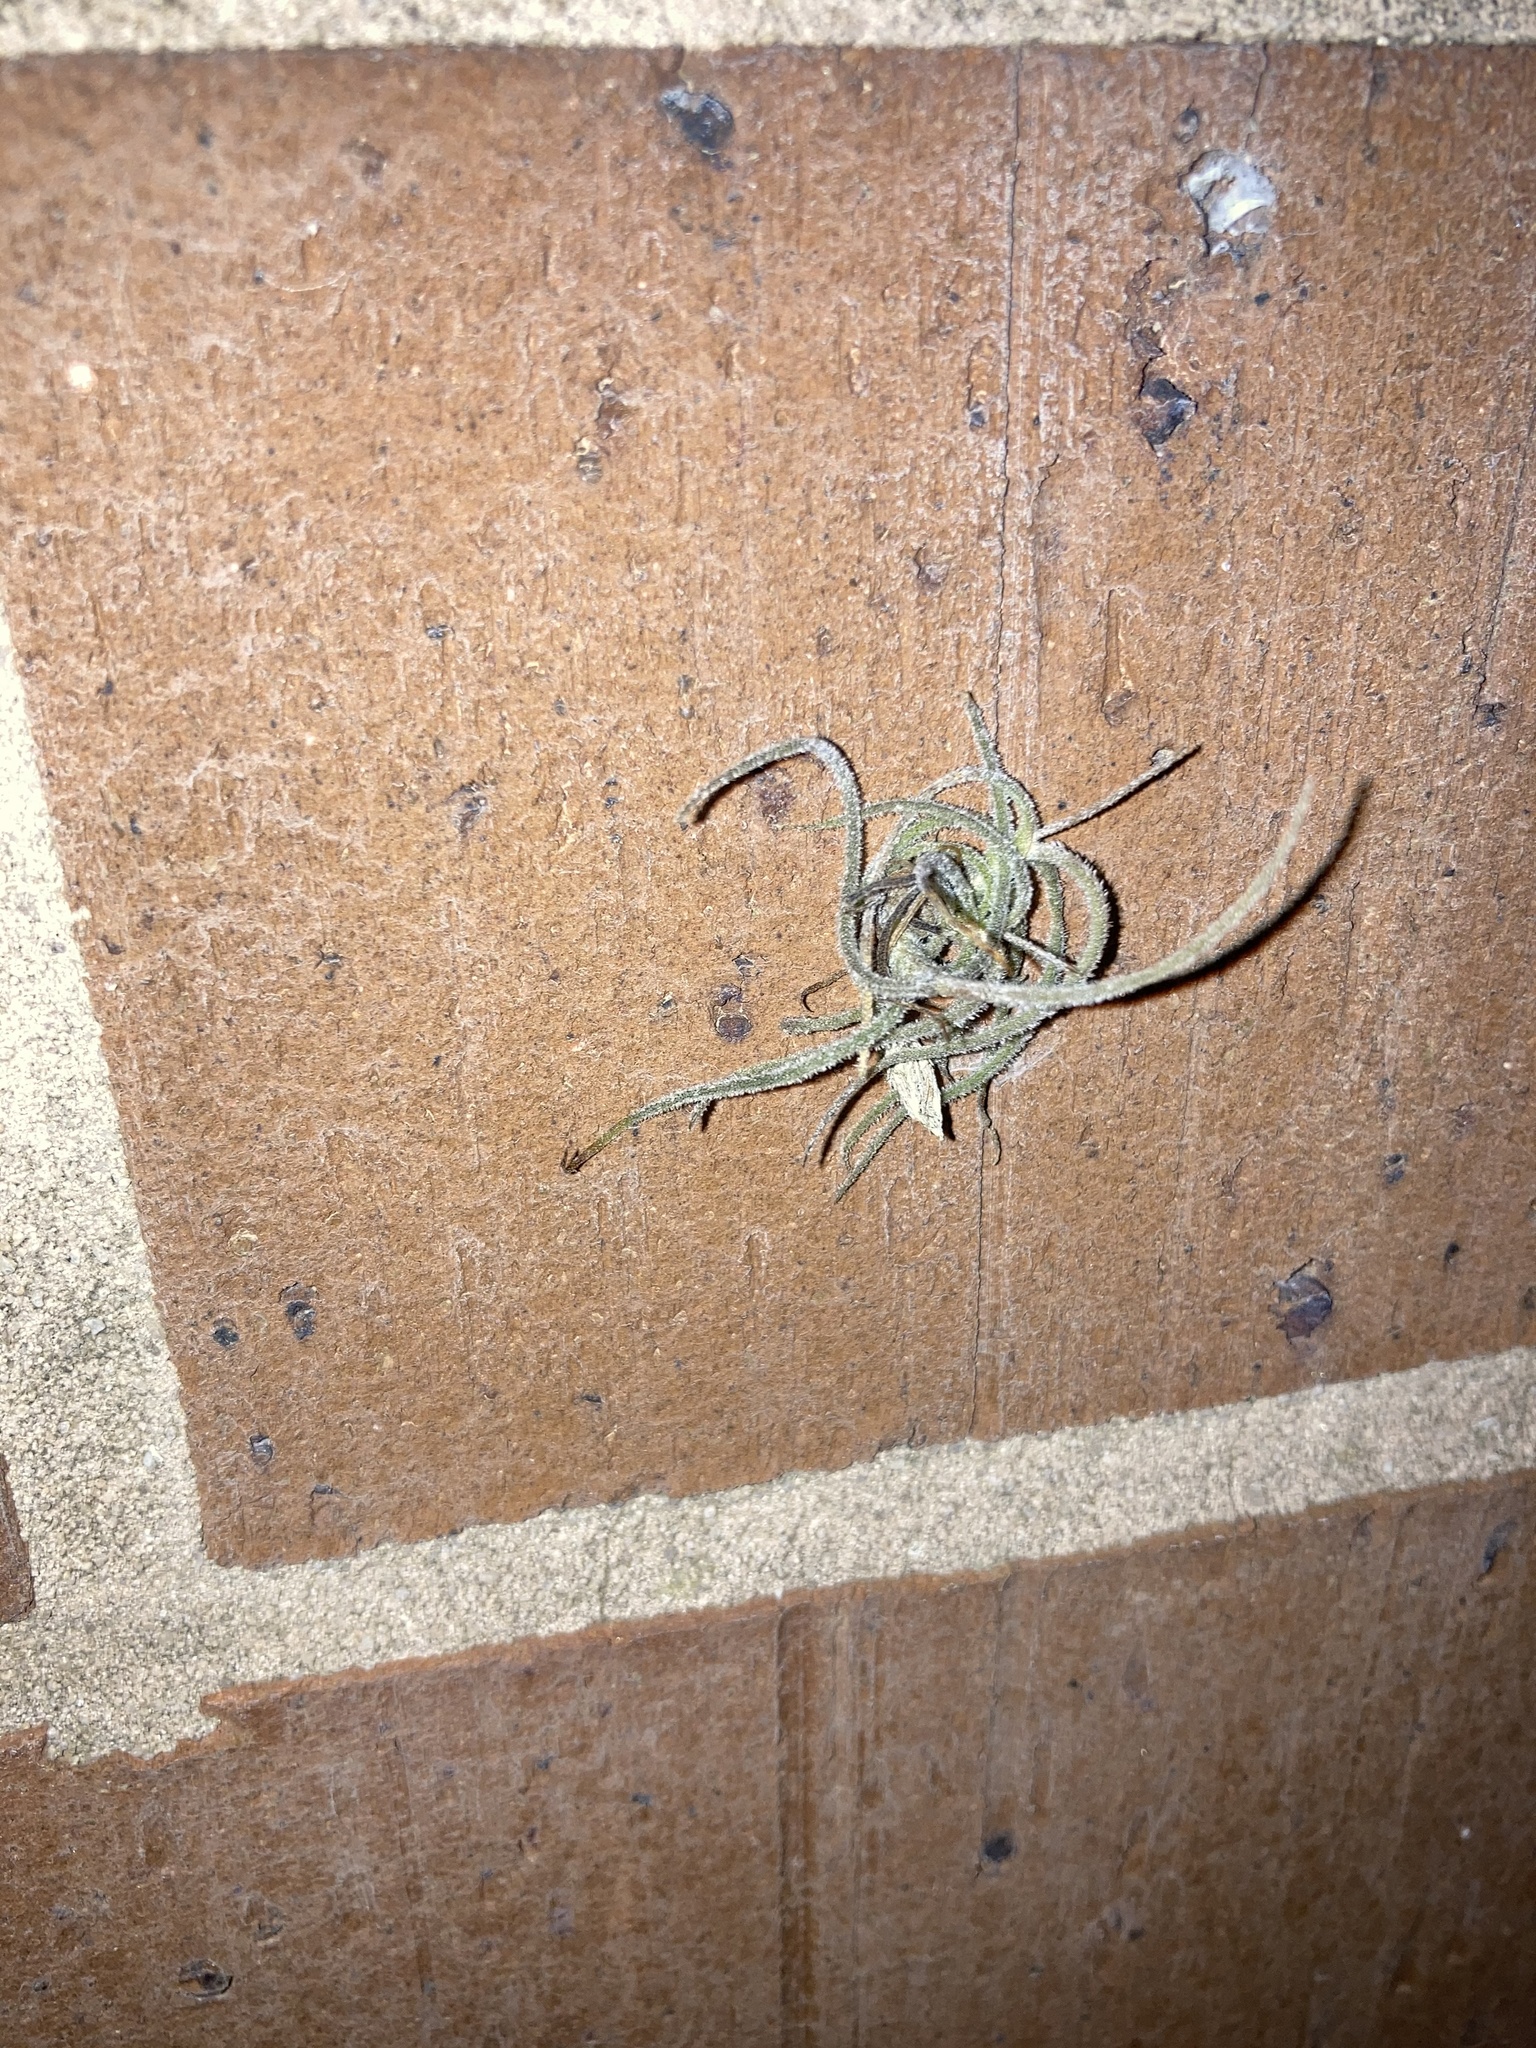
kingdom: Plantae
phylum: Tracheophyta
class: Liliopsida
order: Poales
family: Bromeliaceae
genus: Tillandsia
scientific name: Tillandsia recurvata
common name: Small ballmoss
